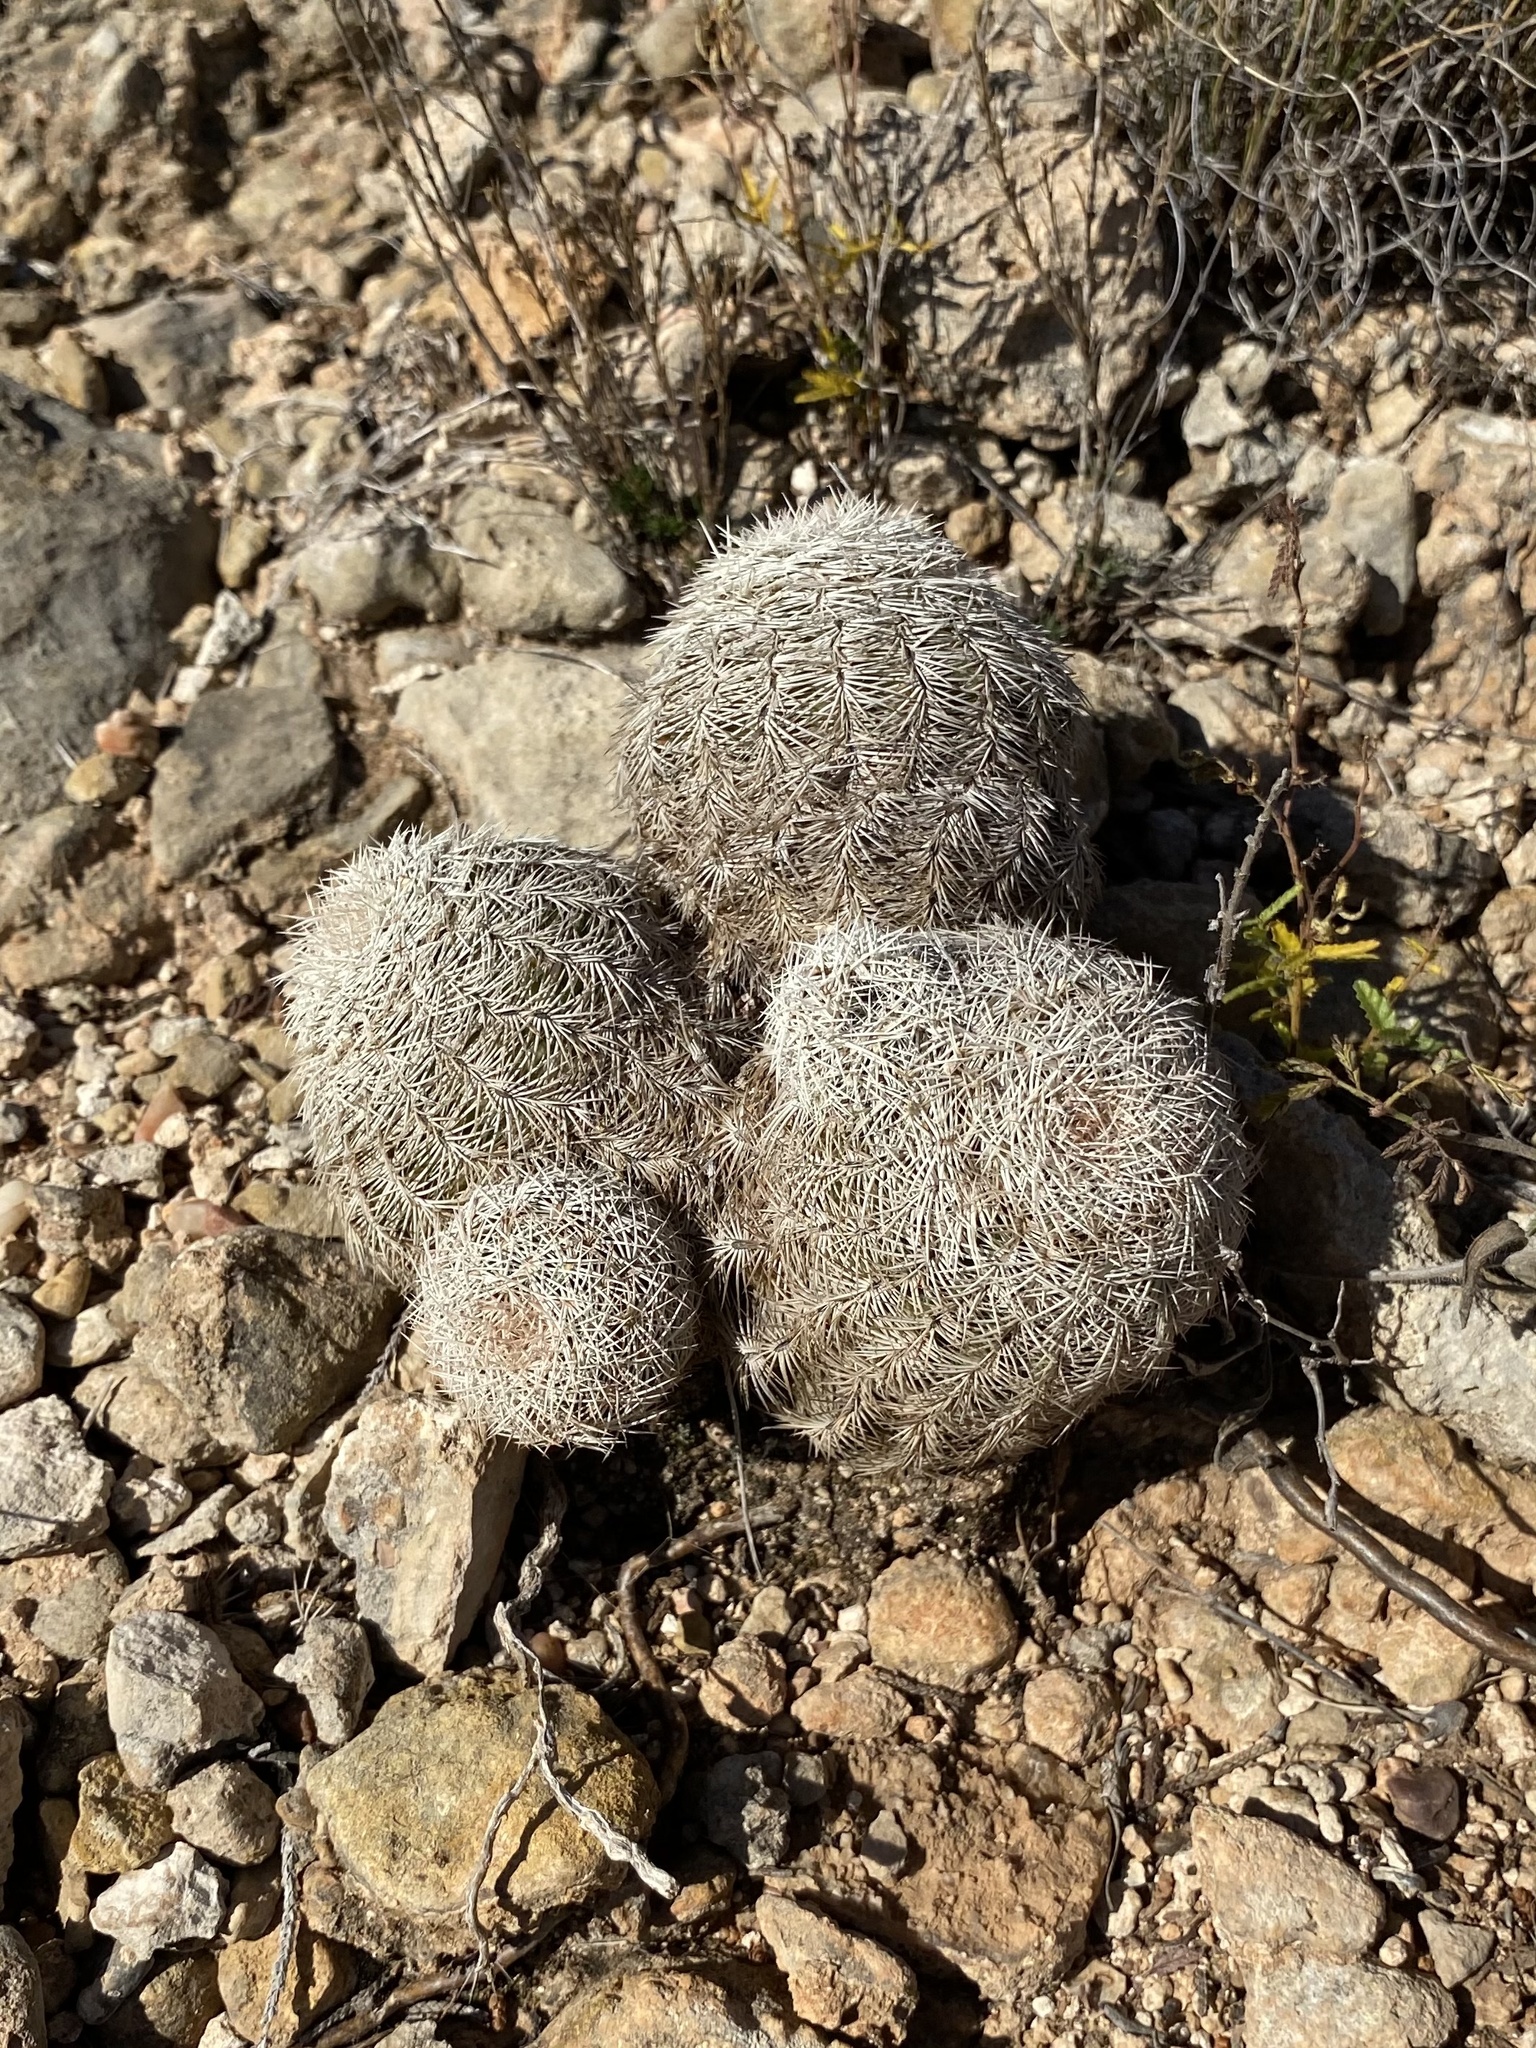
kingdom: Plantae
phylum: Tracheophyta
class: Magnoliopsida
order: Caryophyllales
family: Cactaceae
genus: Echinocereus
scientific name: Echinocereus reichenbachii
